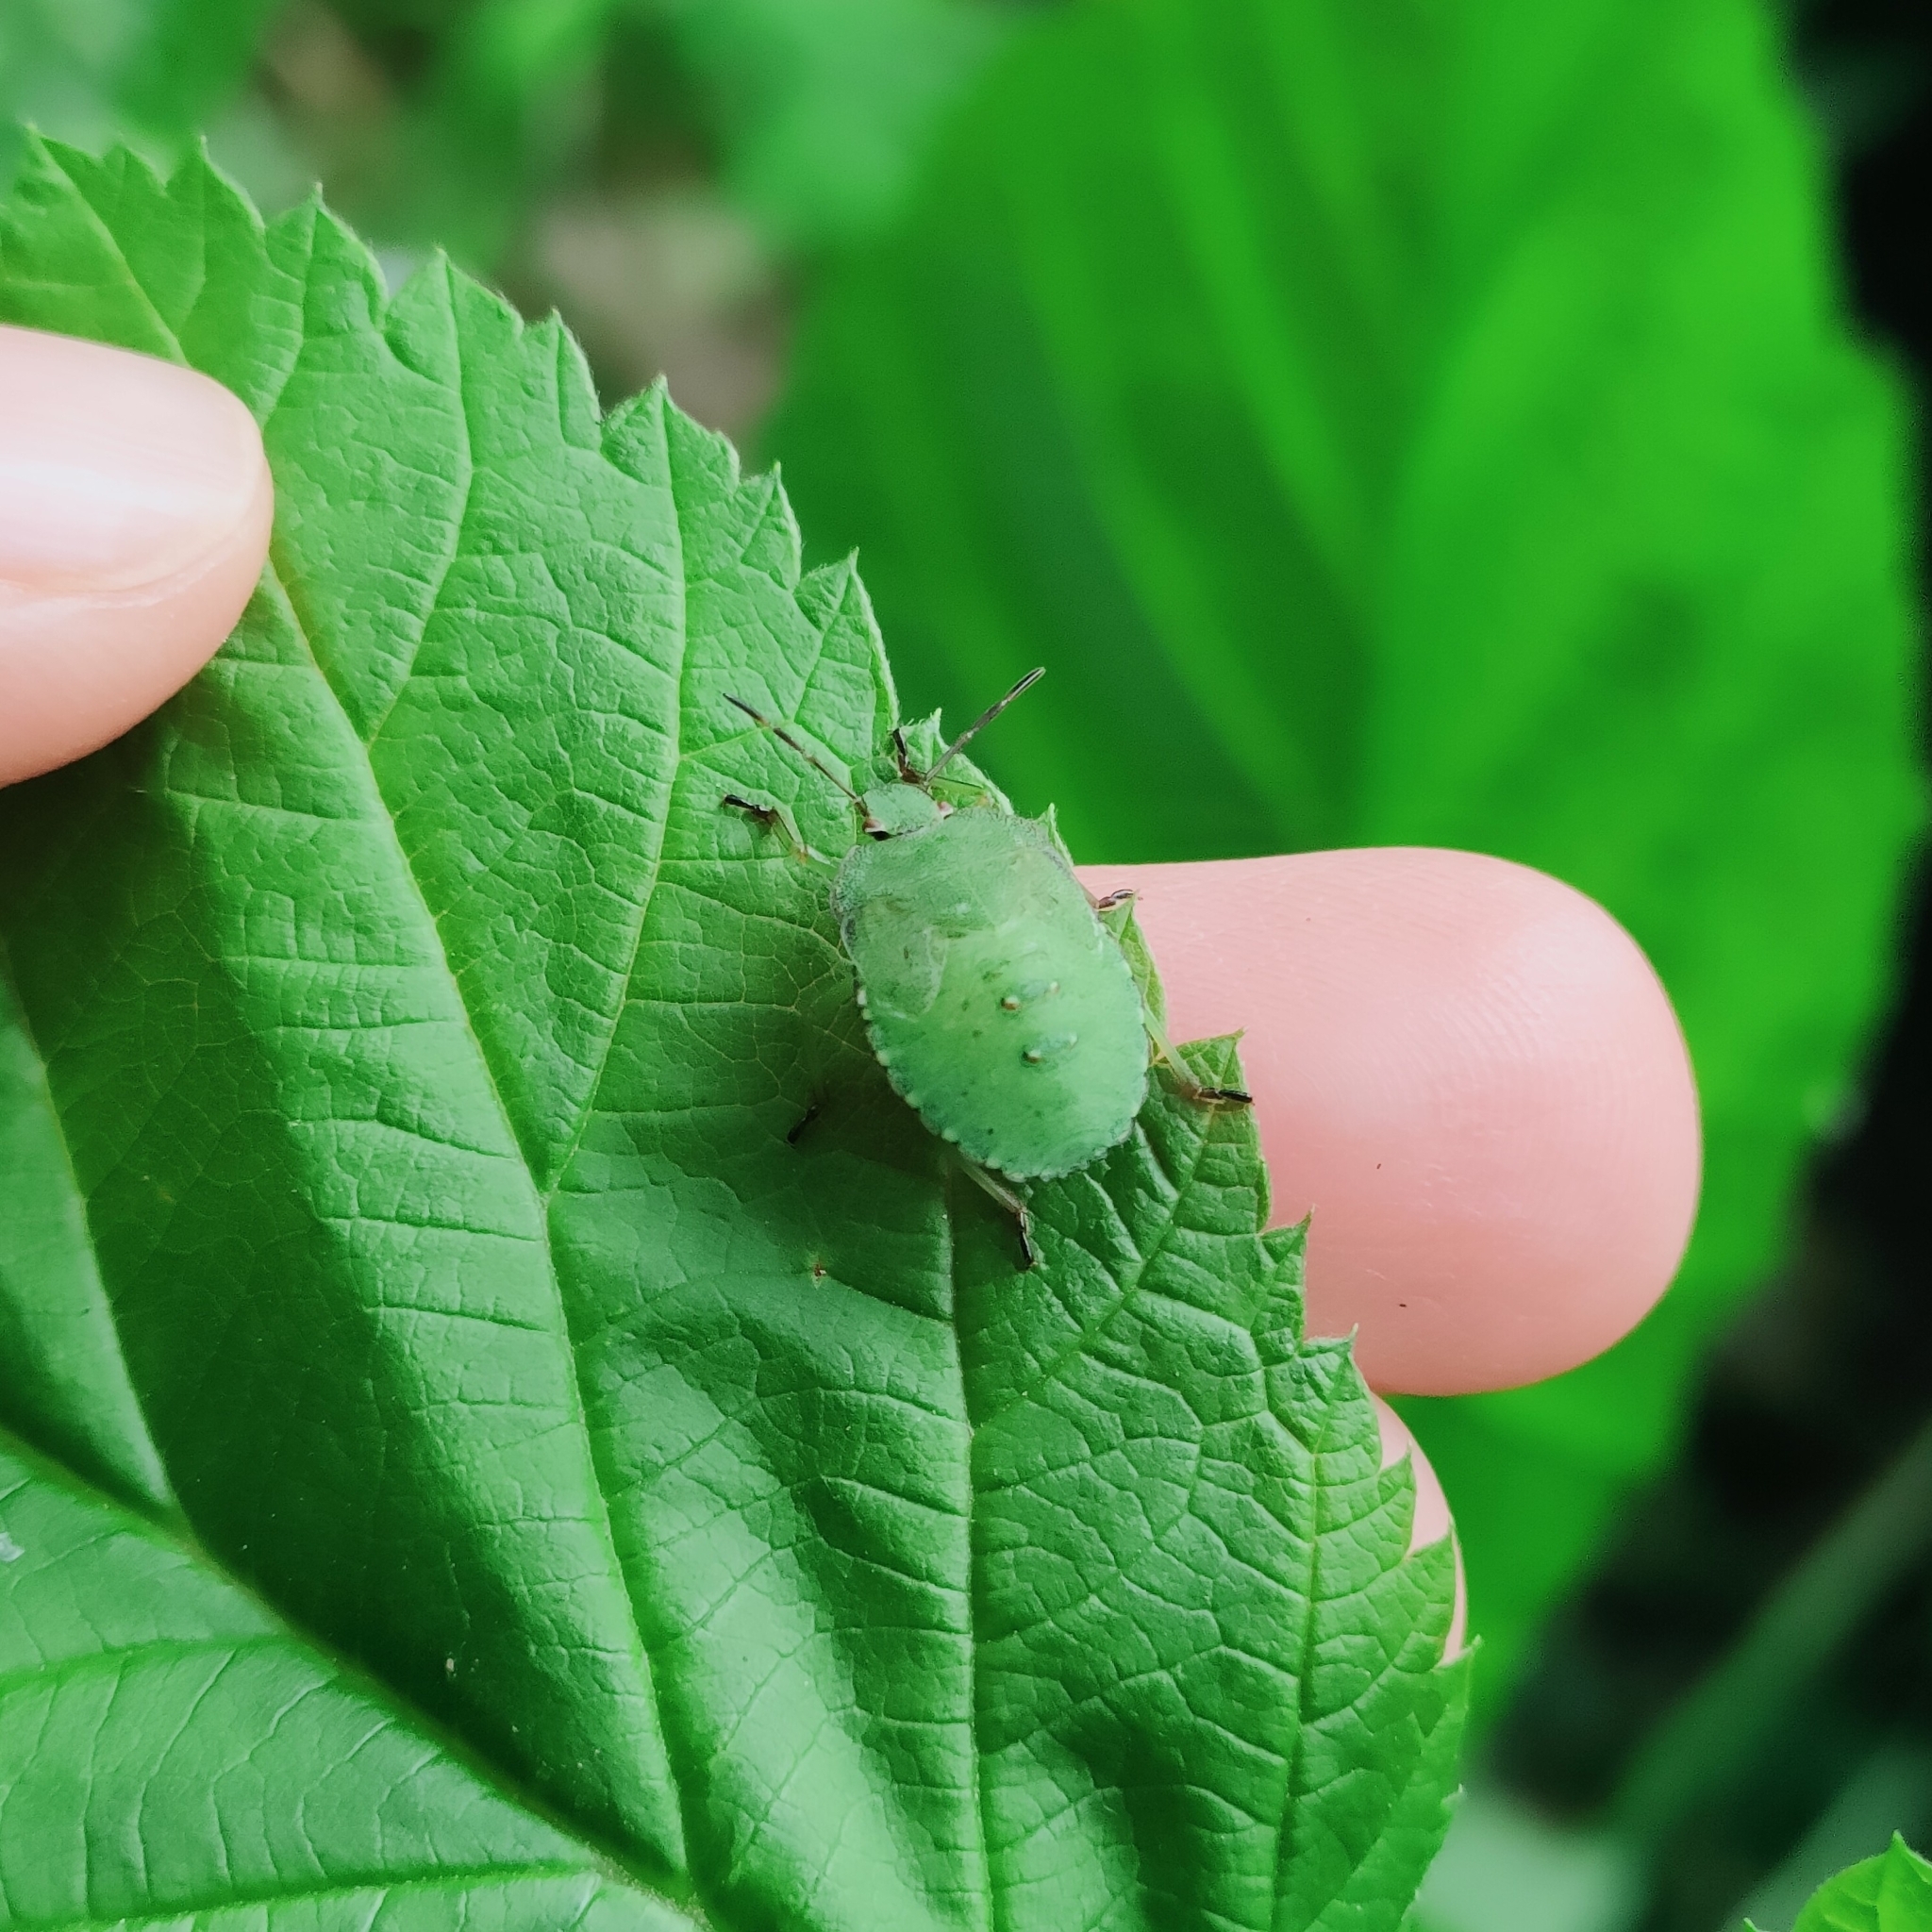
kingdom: Animalia
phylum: Arthropoda
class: Insecta
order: Hemiptera
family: Pentatomidae
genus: Palomena
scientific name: Palomena prasina
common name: Green shieldbug
